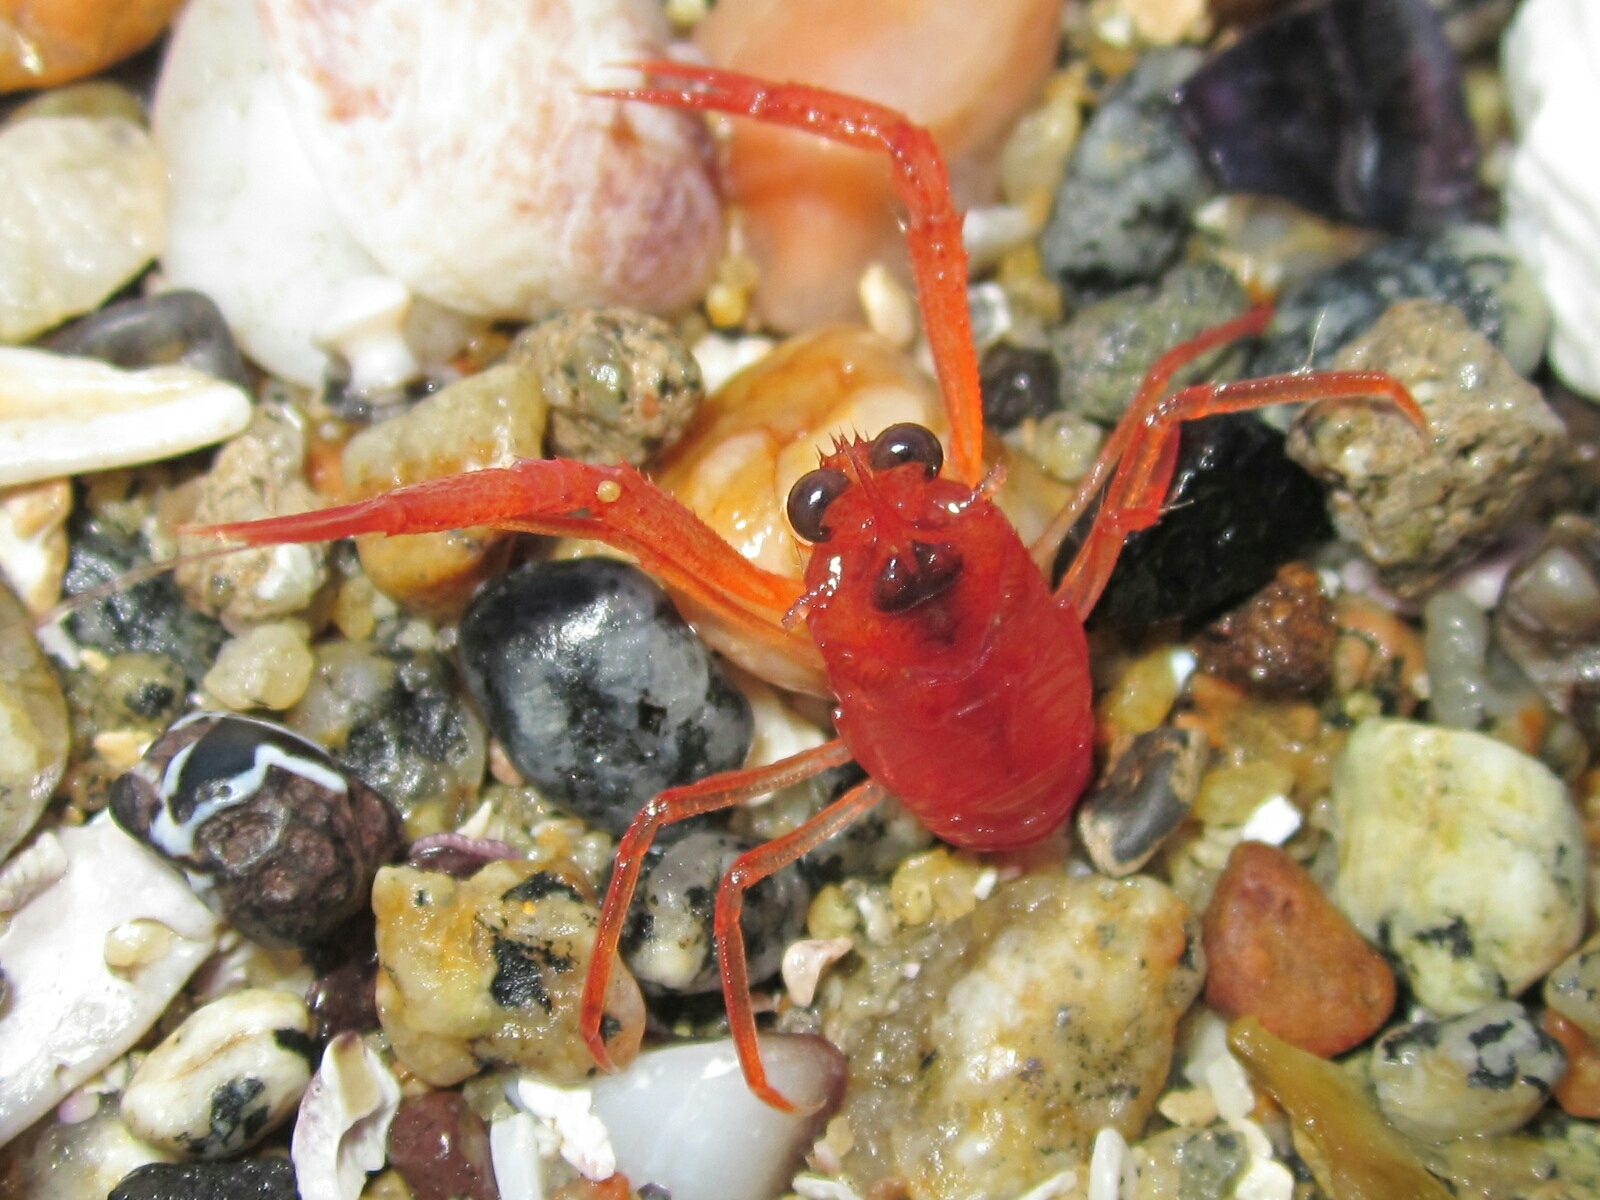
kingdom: Animalia
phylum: Arthropoda
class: Malacostraca
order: Decapoda
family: Munididae
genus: Grimothea
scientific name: Grimothea monodon
